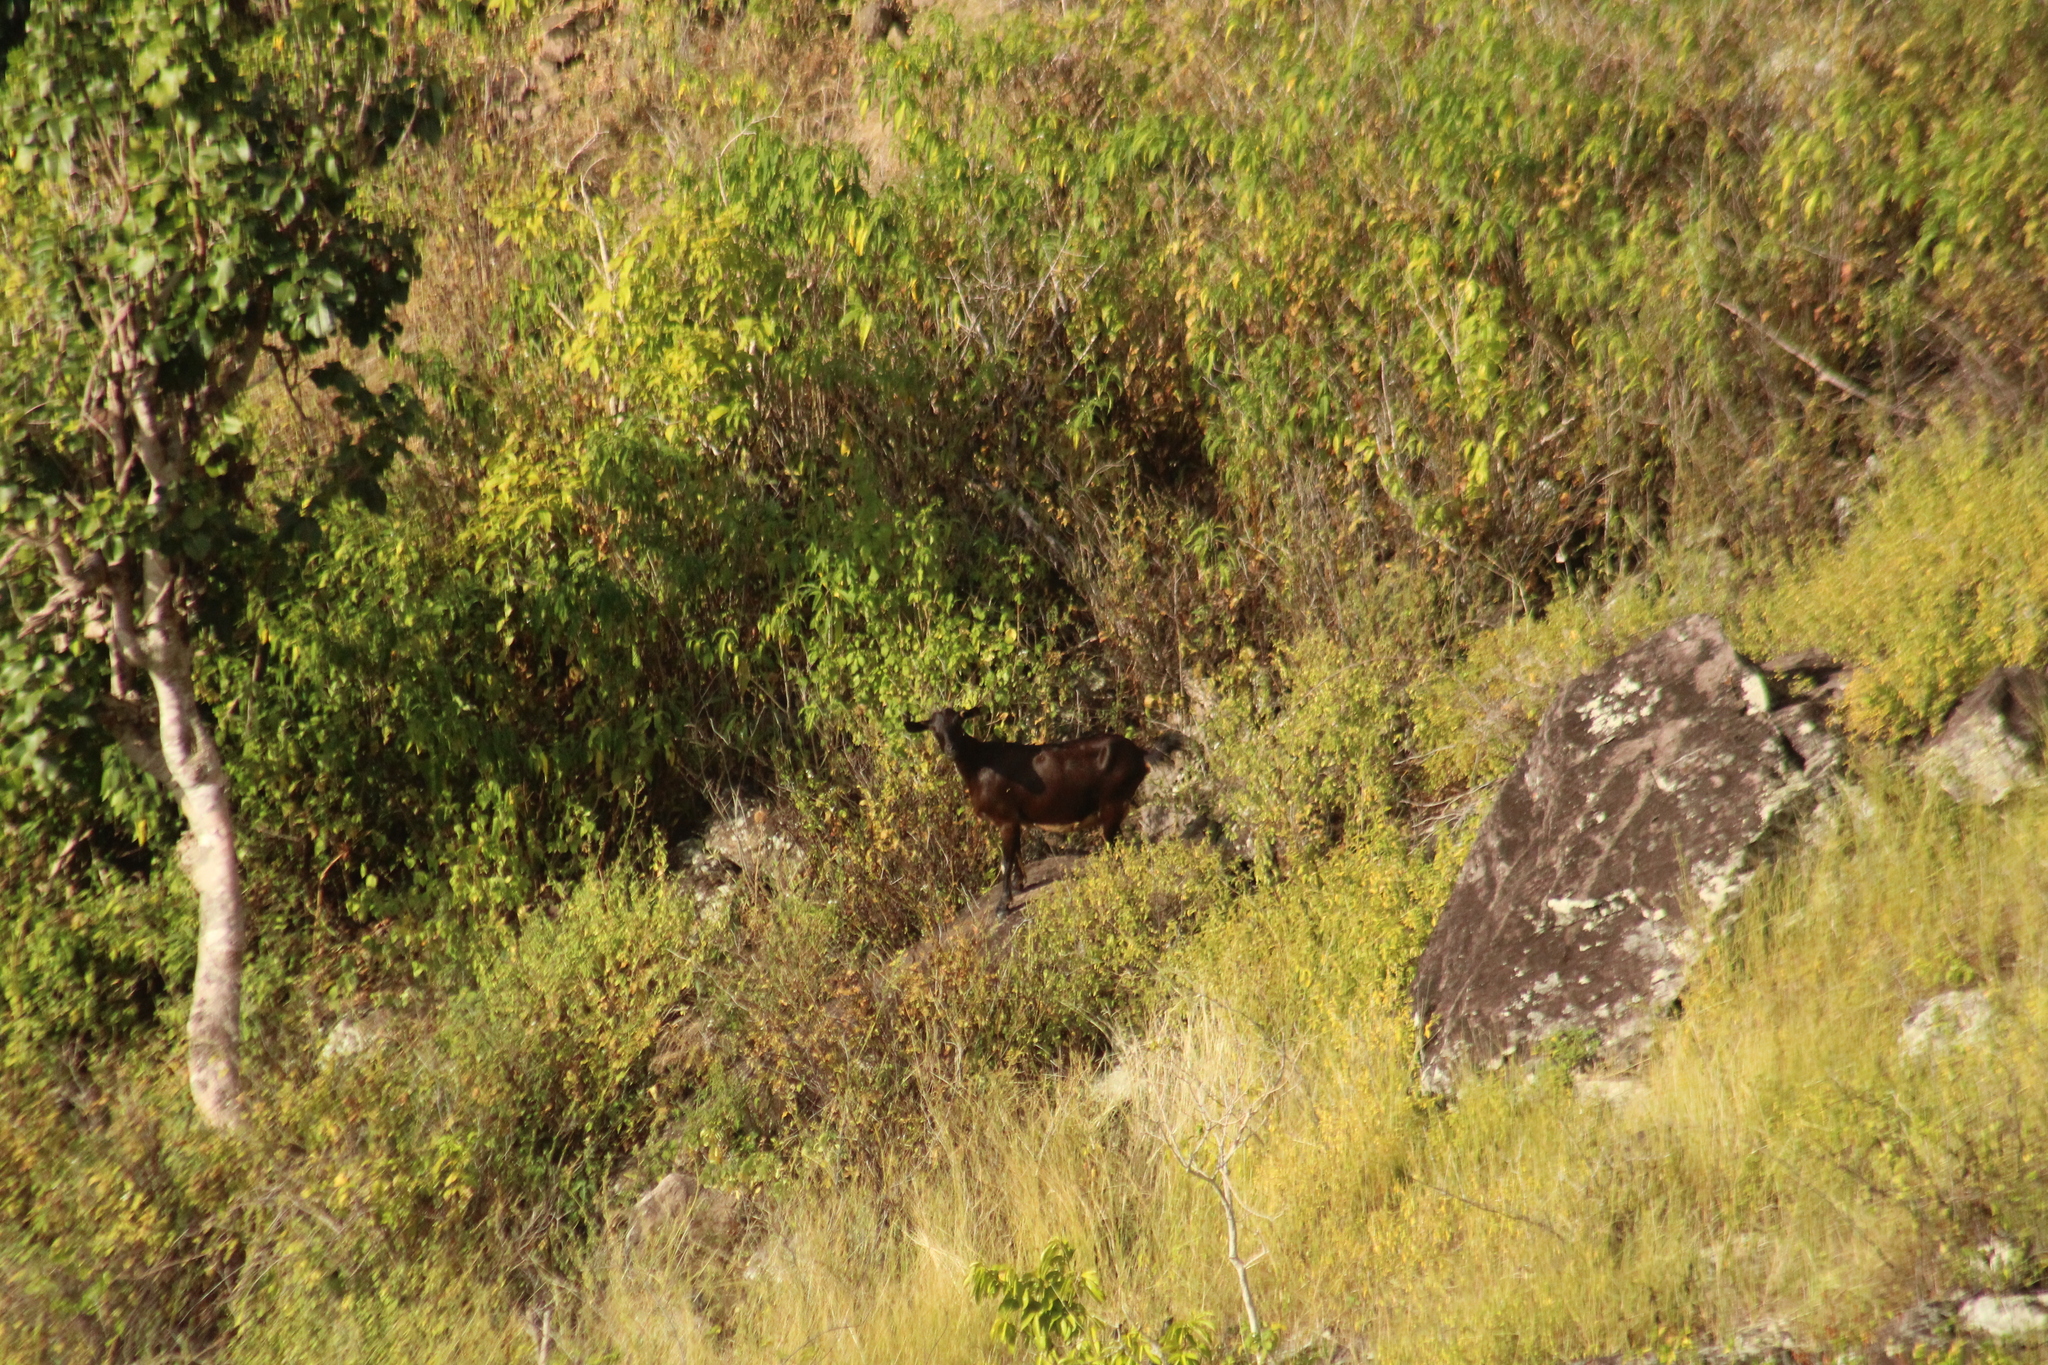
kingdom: Animalia
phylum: Chordata
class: Mammalia
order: Artiodactyla
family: Bovidae
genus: Capra
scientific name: Capra hircus
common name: Domestic goat
